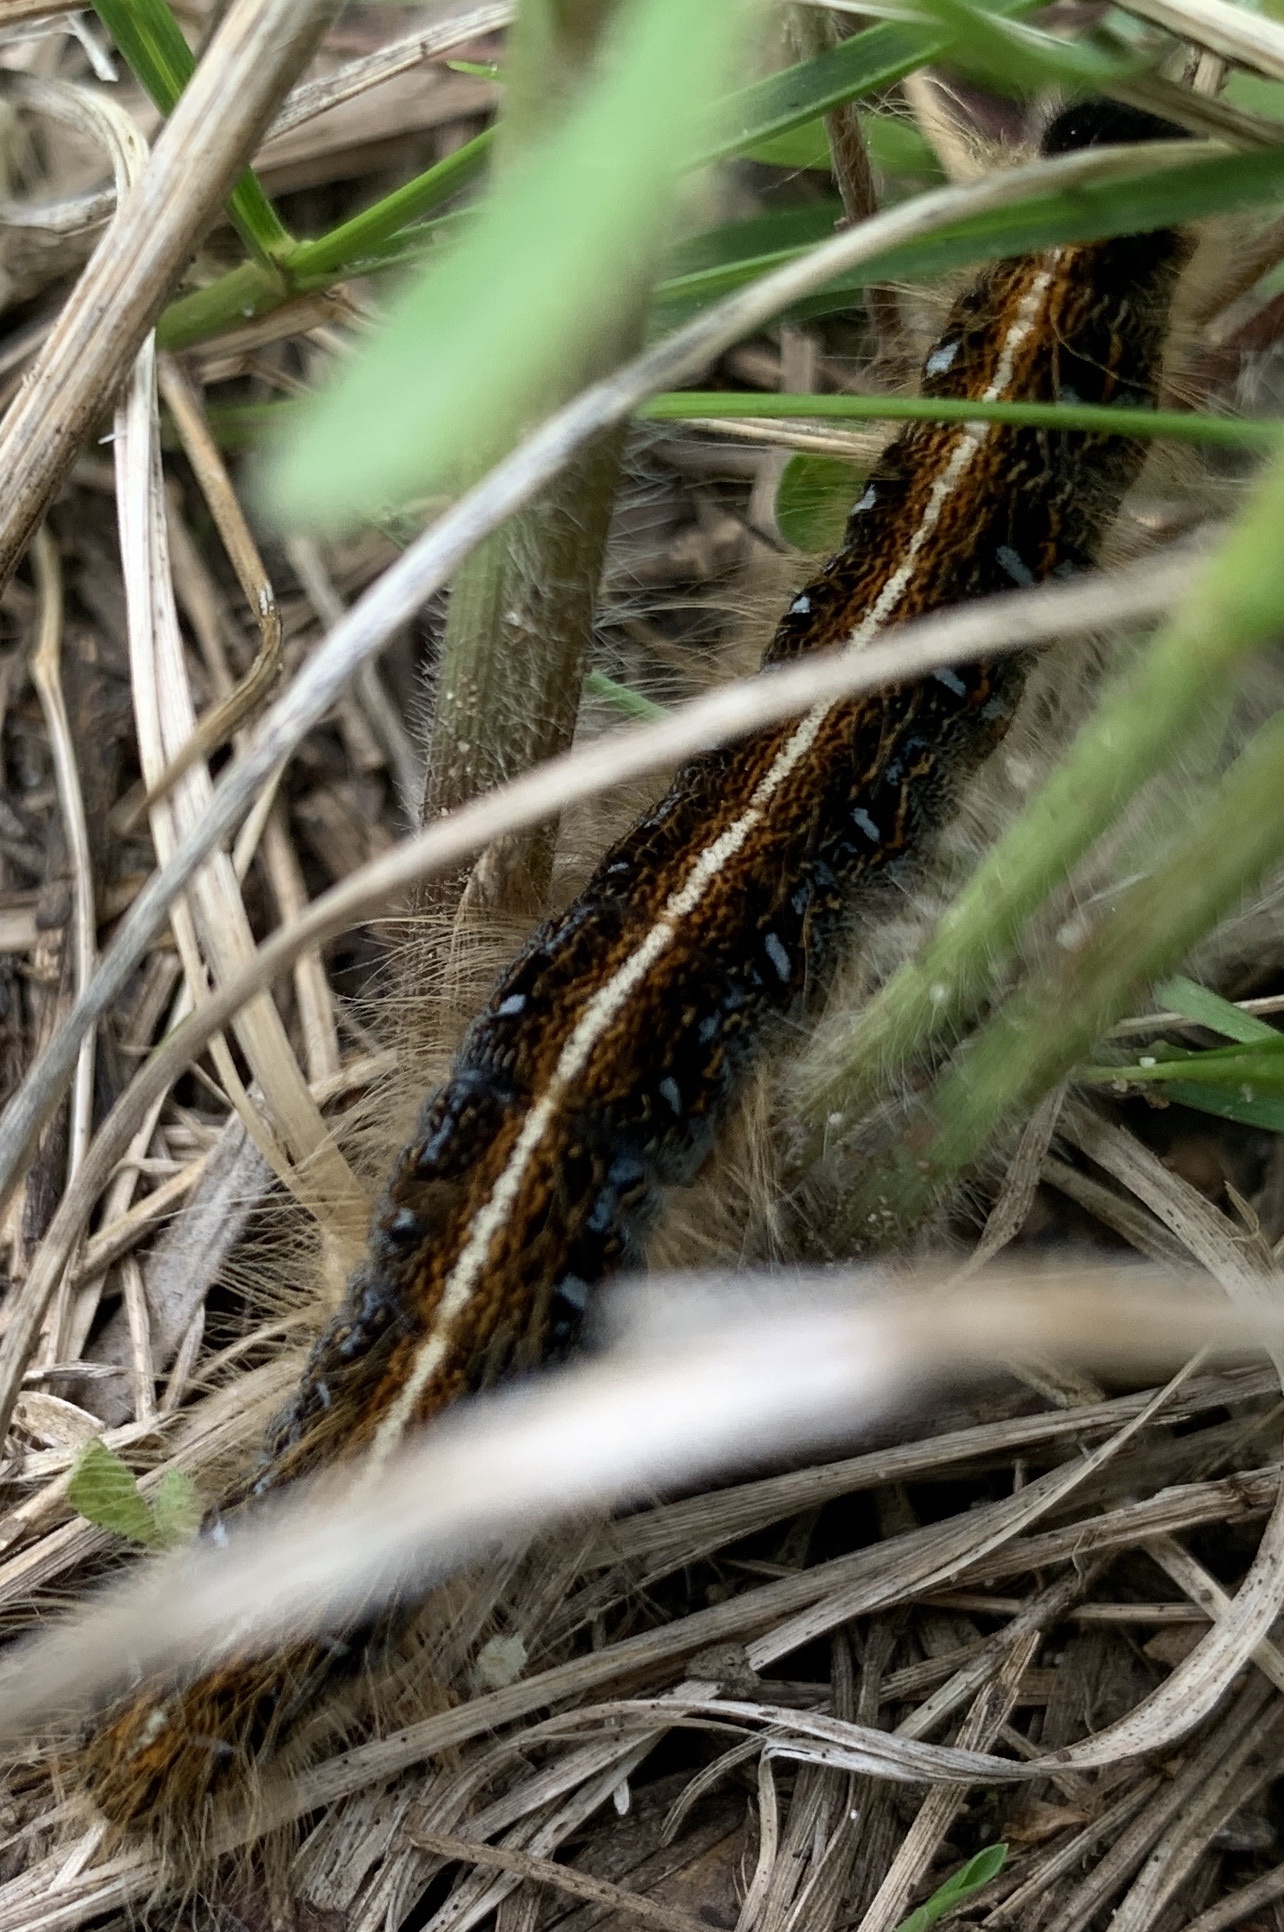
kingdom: Animalia
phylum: Arthropoda
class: Insecta
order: Lepidoptera
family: Lasiocampidae
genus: Malacosoma
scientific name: Malacosoma americana
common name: Eastern tent caterpillar moth
